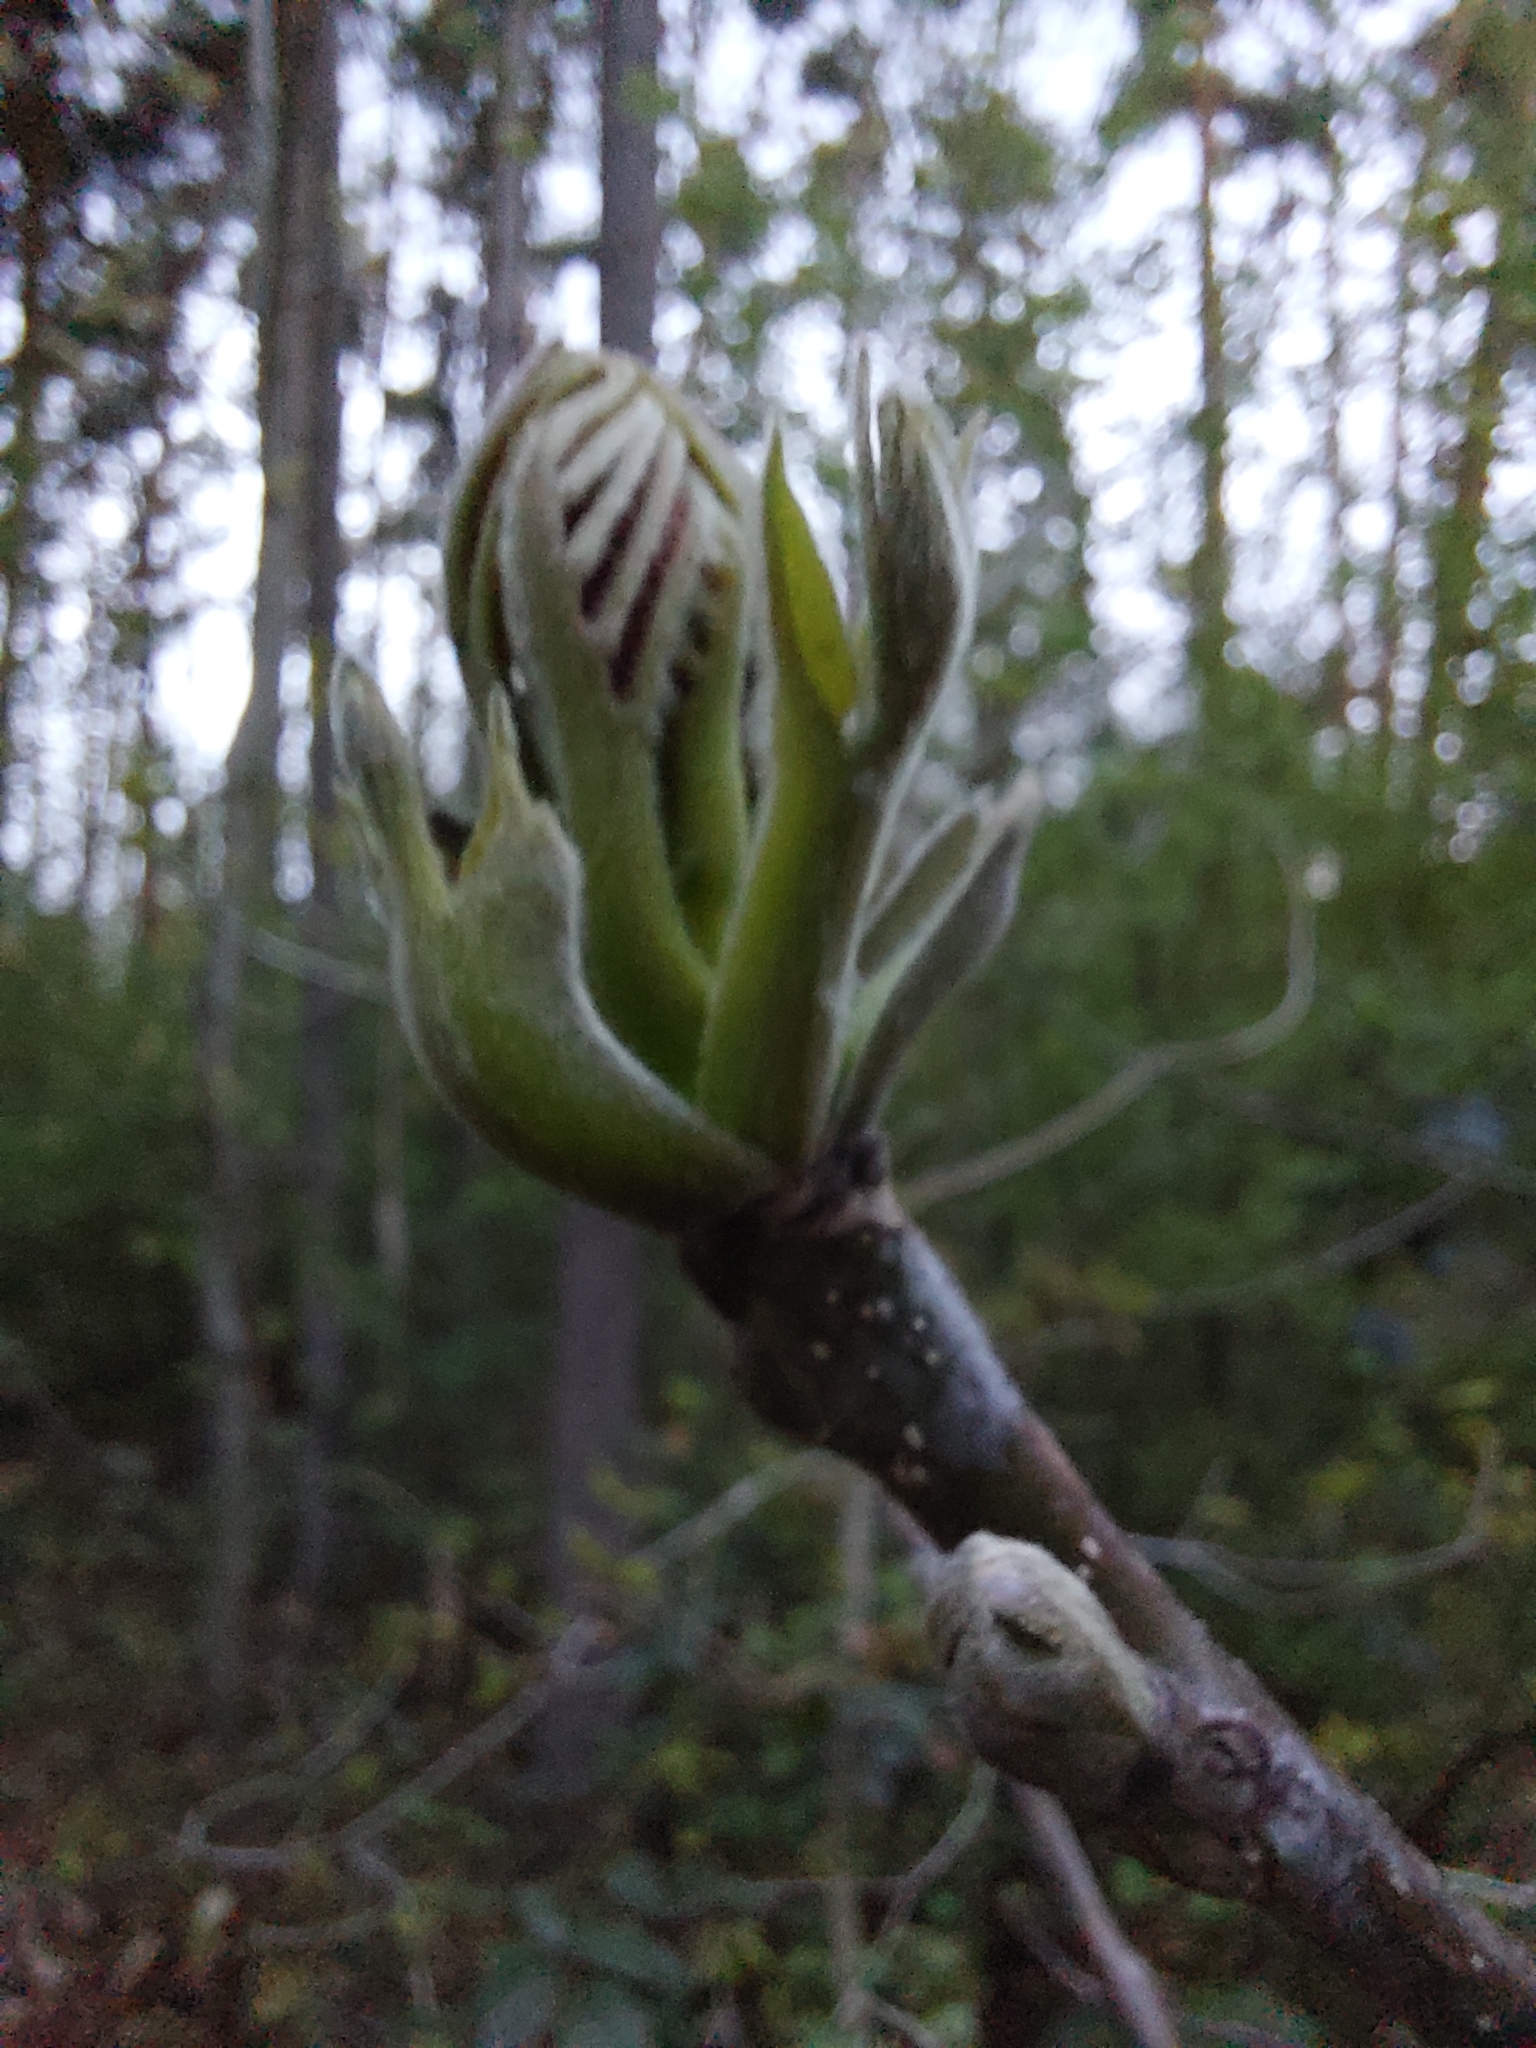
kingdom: Plantae
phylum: Tracheophyta
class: Magnoliopsida
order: Fagales
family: Juglandaceae
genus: Juglans
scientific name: Juglans regia
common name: Walnut
